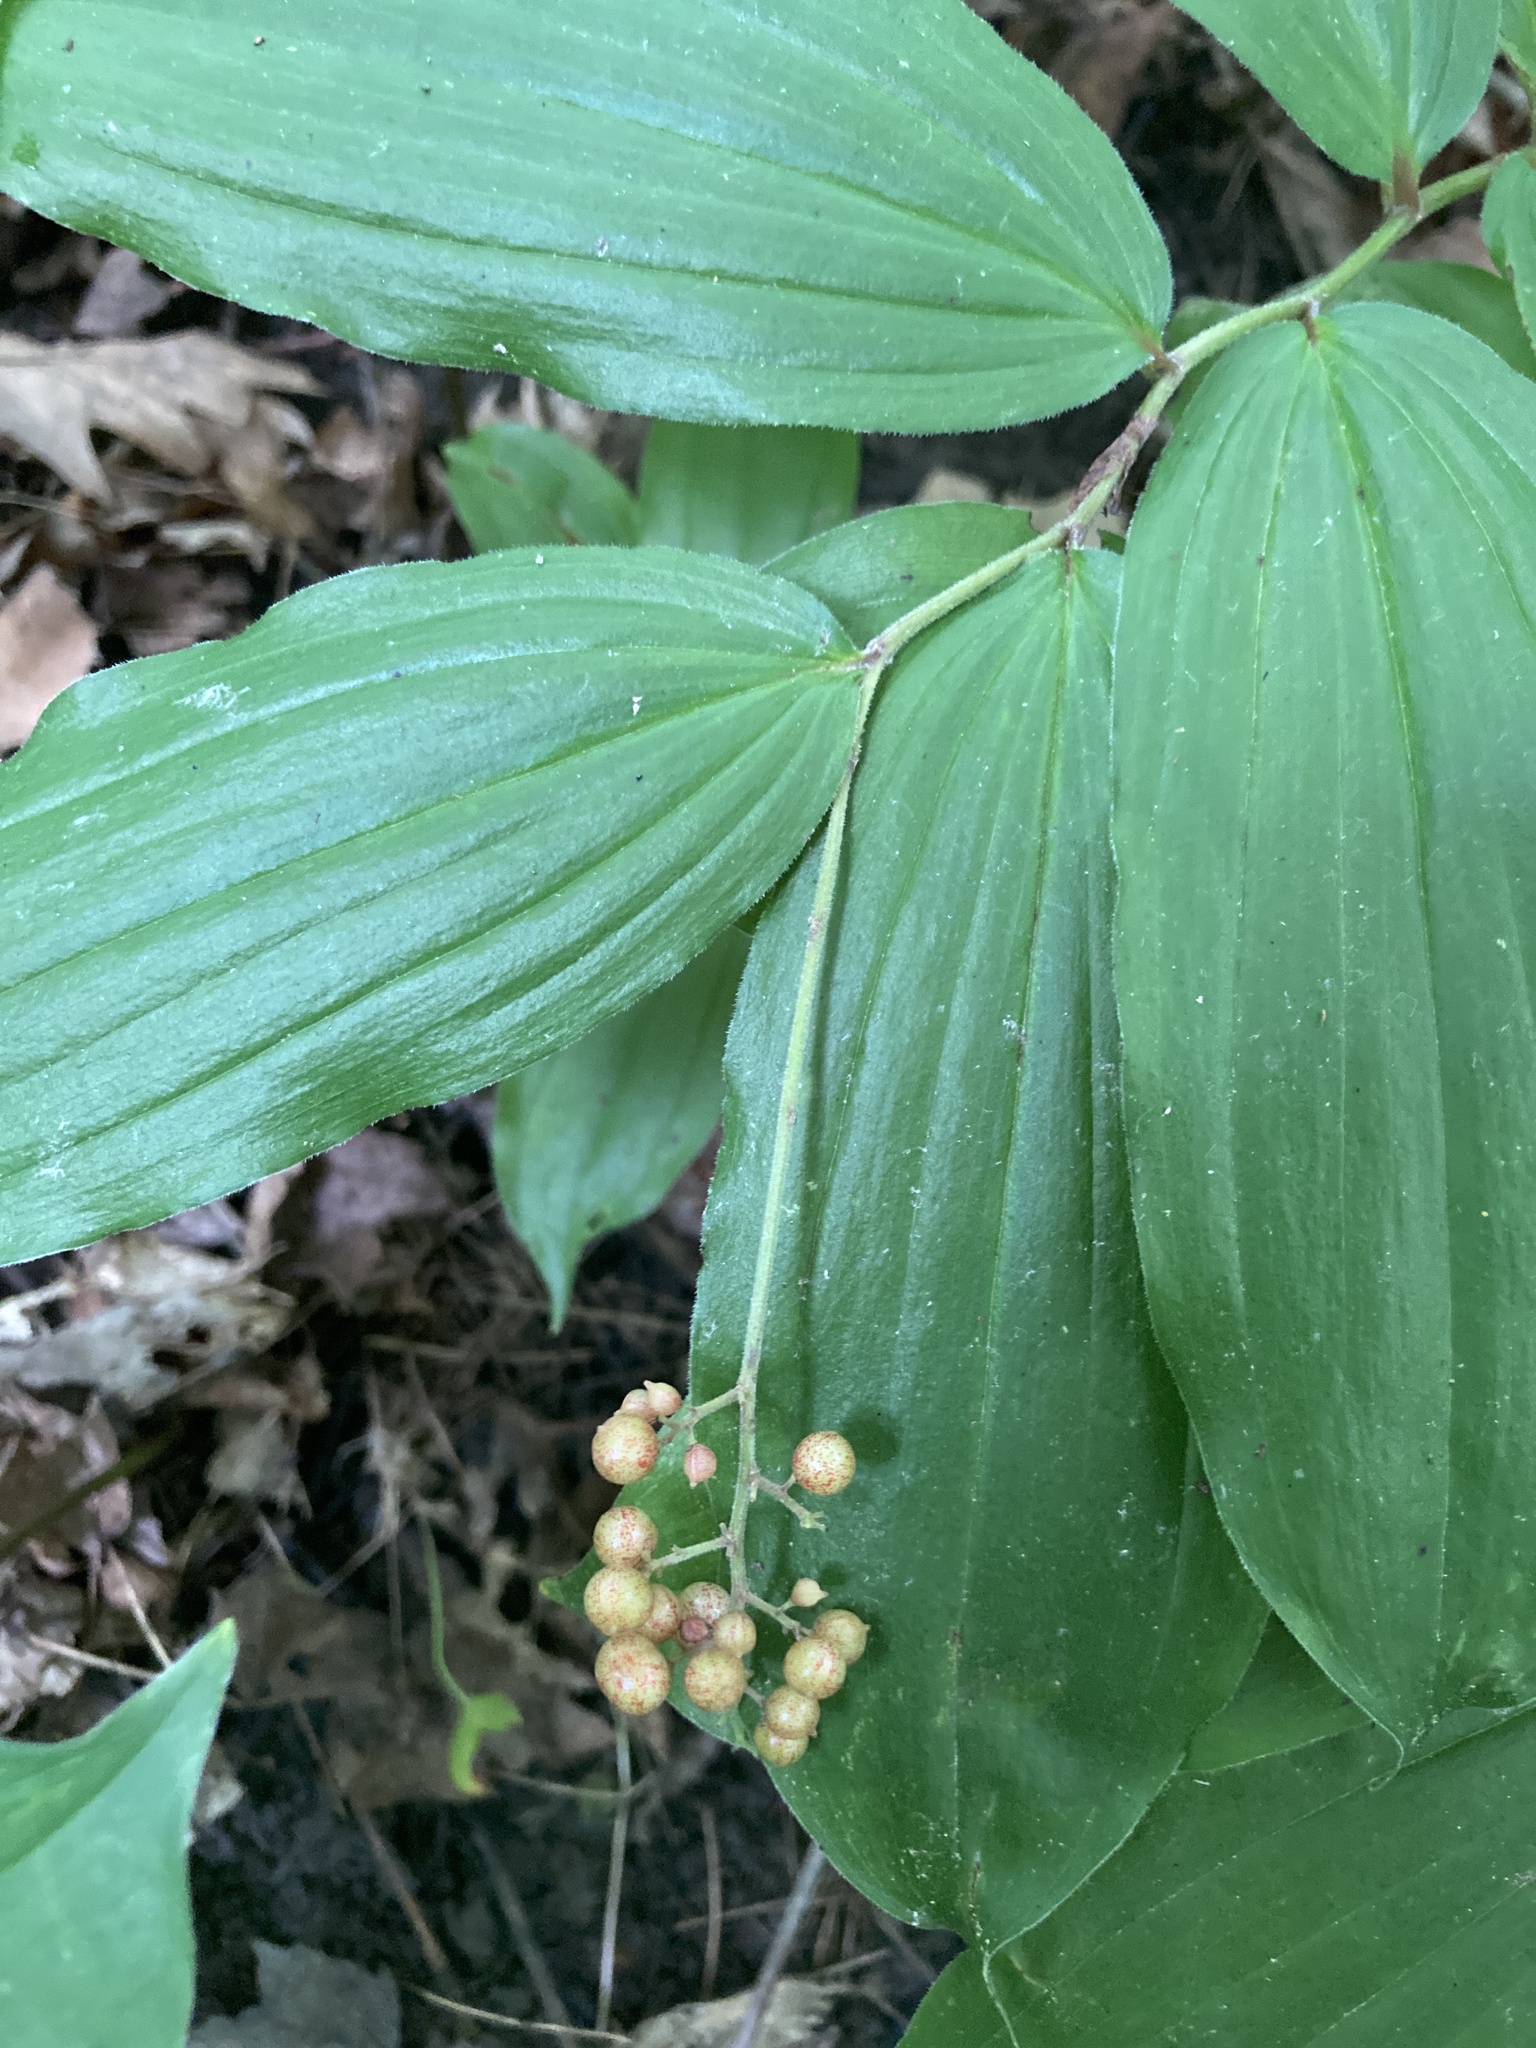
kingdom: Plantae
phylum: Tracheophyta
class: Liliopsida
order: Asparagales
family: Asparagaceae
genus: Maianthemum
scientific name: Maianthemum racemosum
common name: False spikenard
